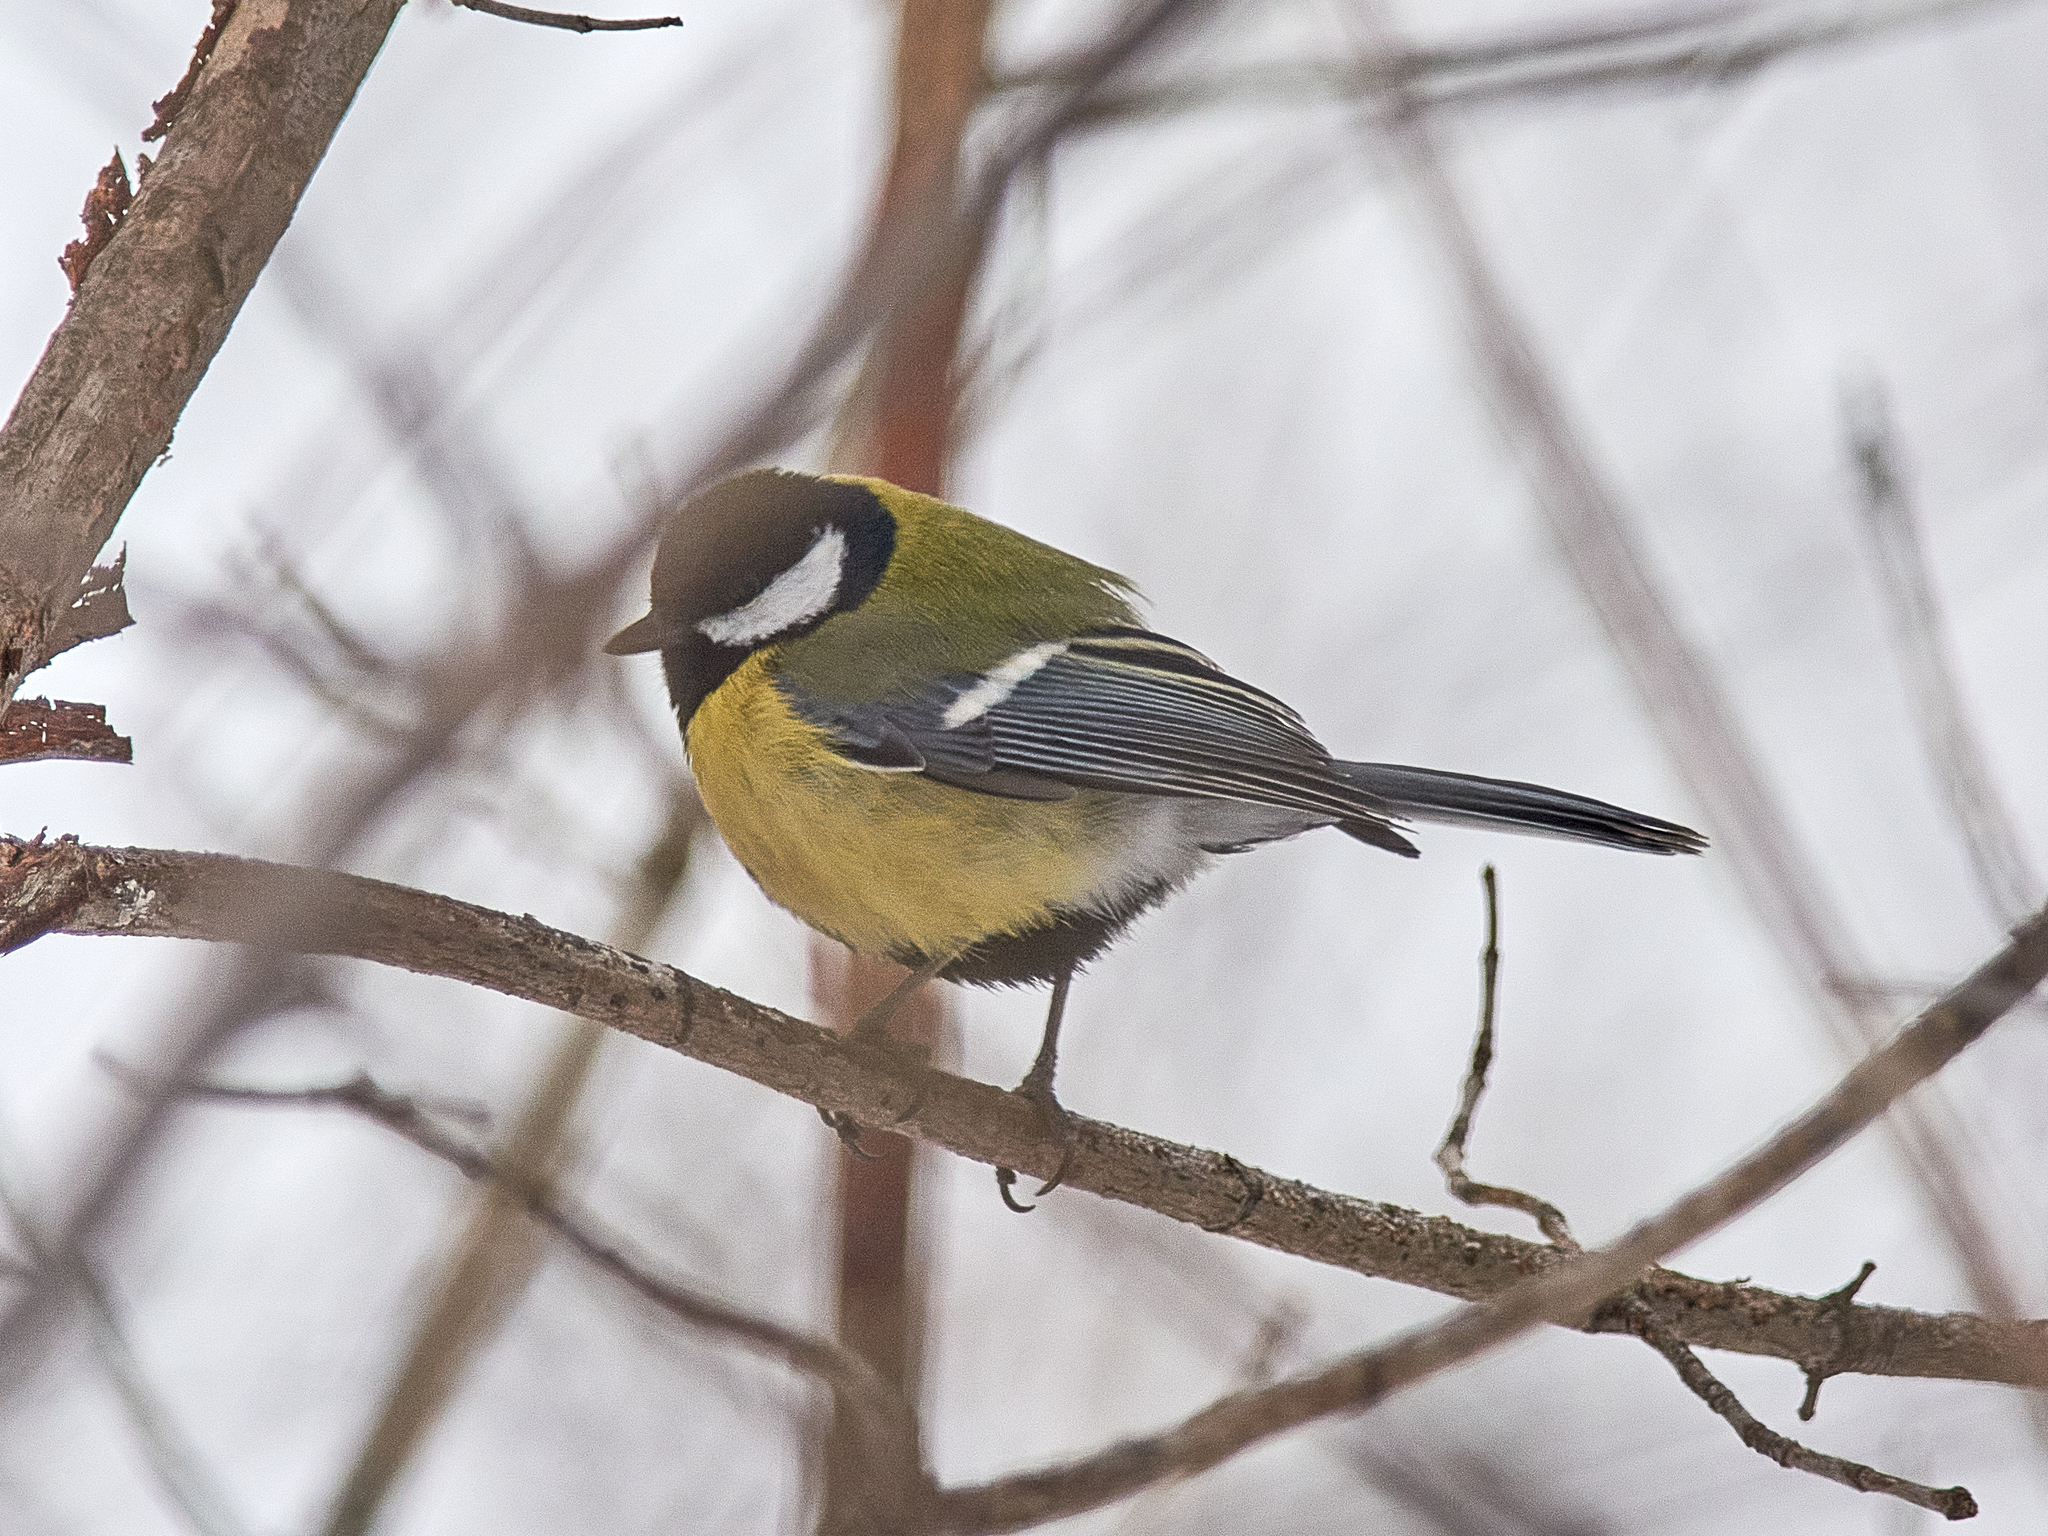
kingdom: Animalia
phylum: Chordata
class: Aves
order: Passeriformes
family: Paridae
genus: Parus
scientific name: Parus major
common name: Great tit
